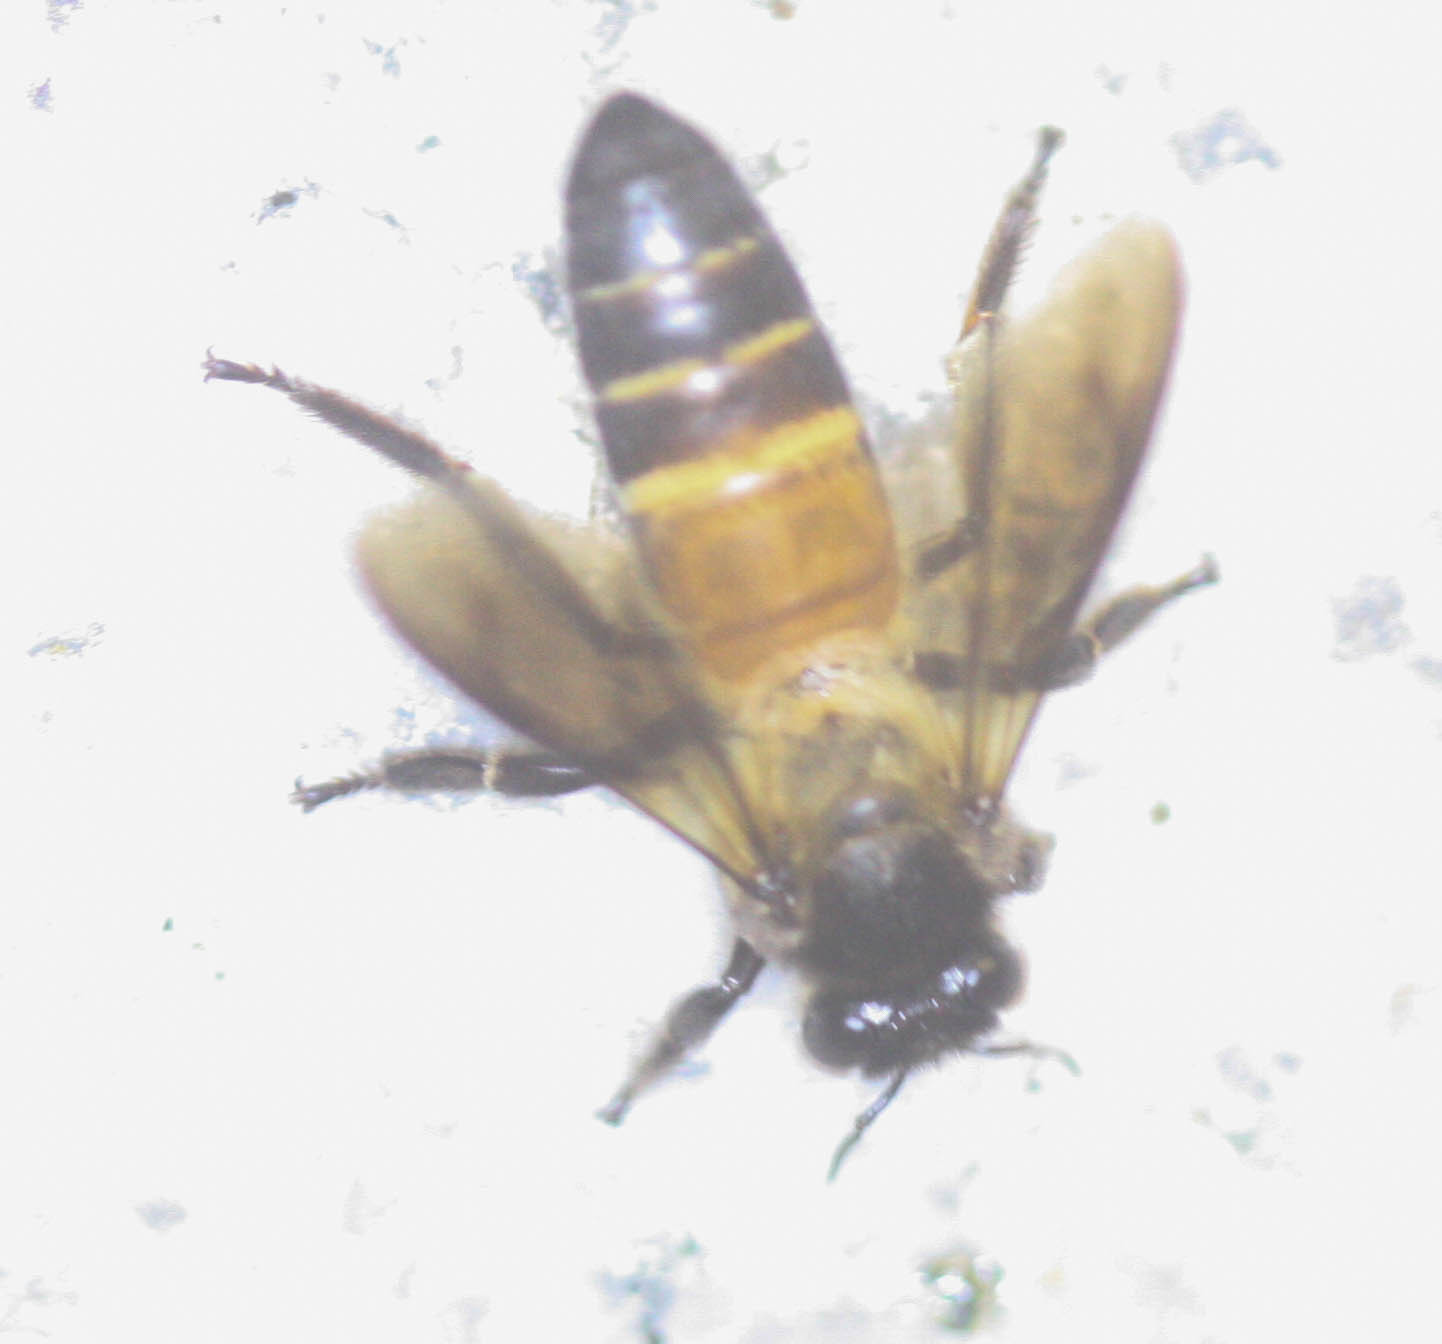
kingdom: Animalia
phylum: Arthropoda
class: Insecta
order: Hymenoptera
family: Apidae
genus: Apis
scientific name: Apis dorsata
